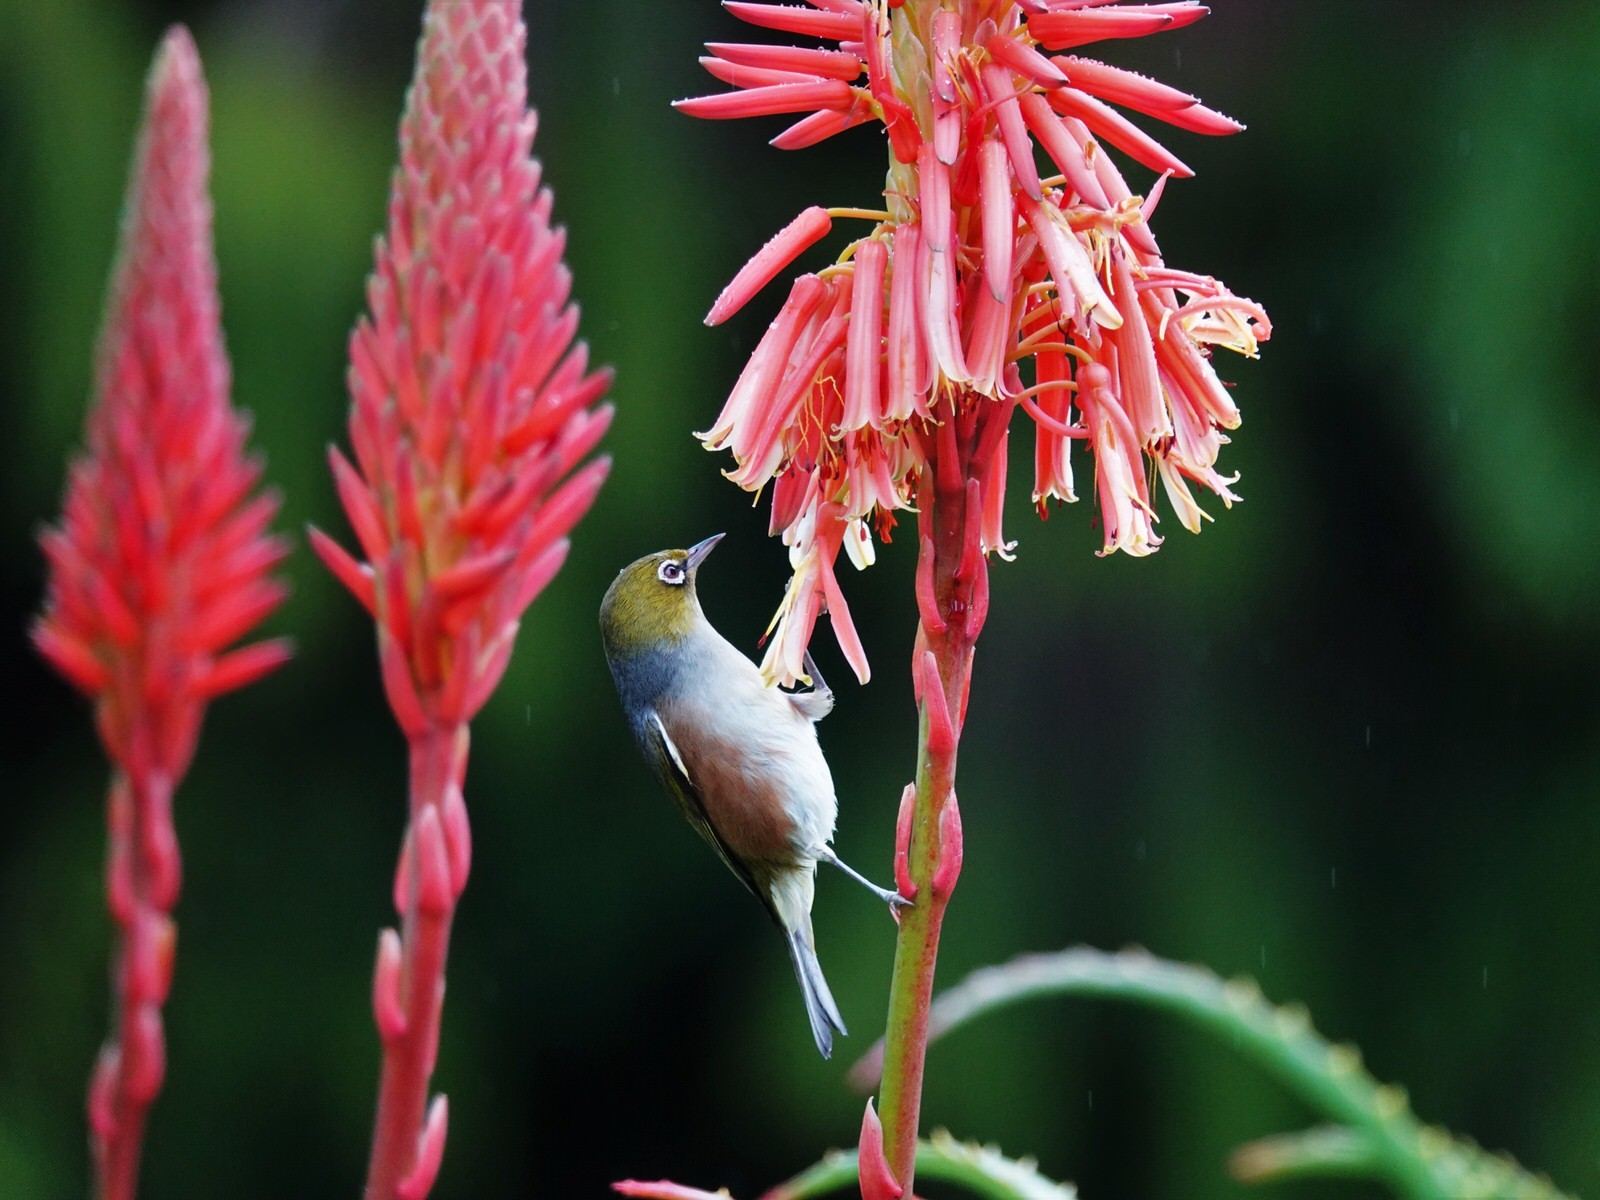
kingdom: Animalia
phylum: Chordata
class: Aves
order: Passeriformes
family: Zosteropidae
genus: Zosterops
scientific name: Zosterops lateralis
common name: Silvereye
